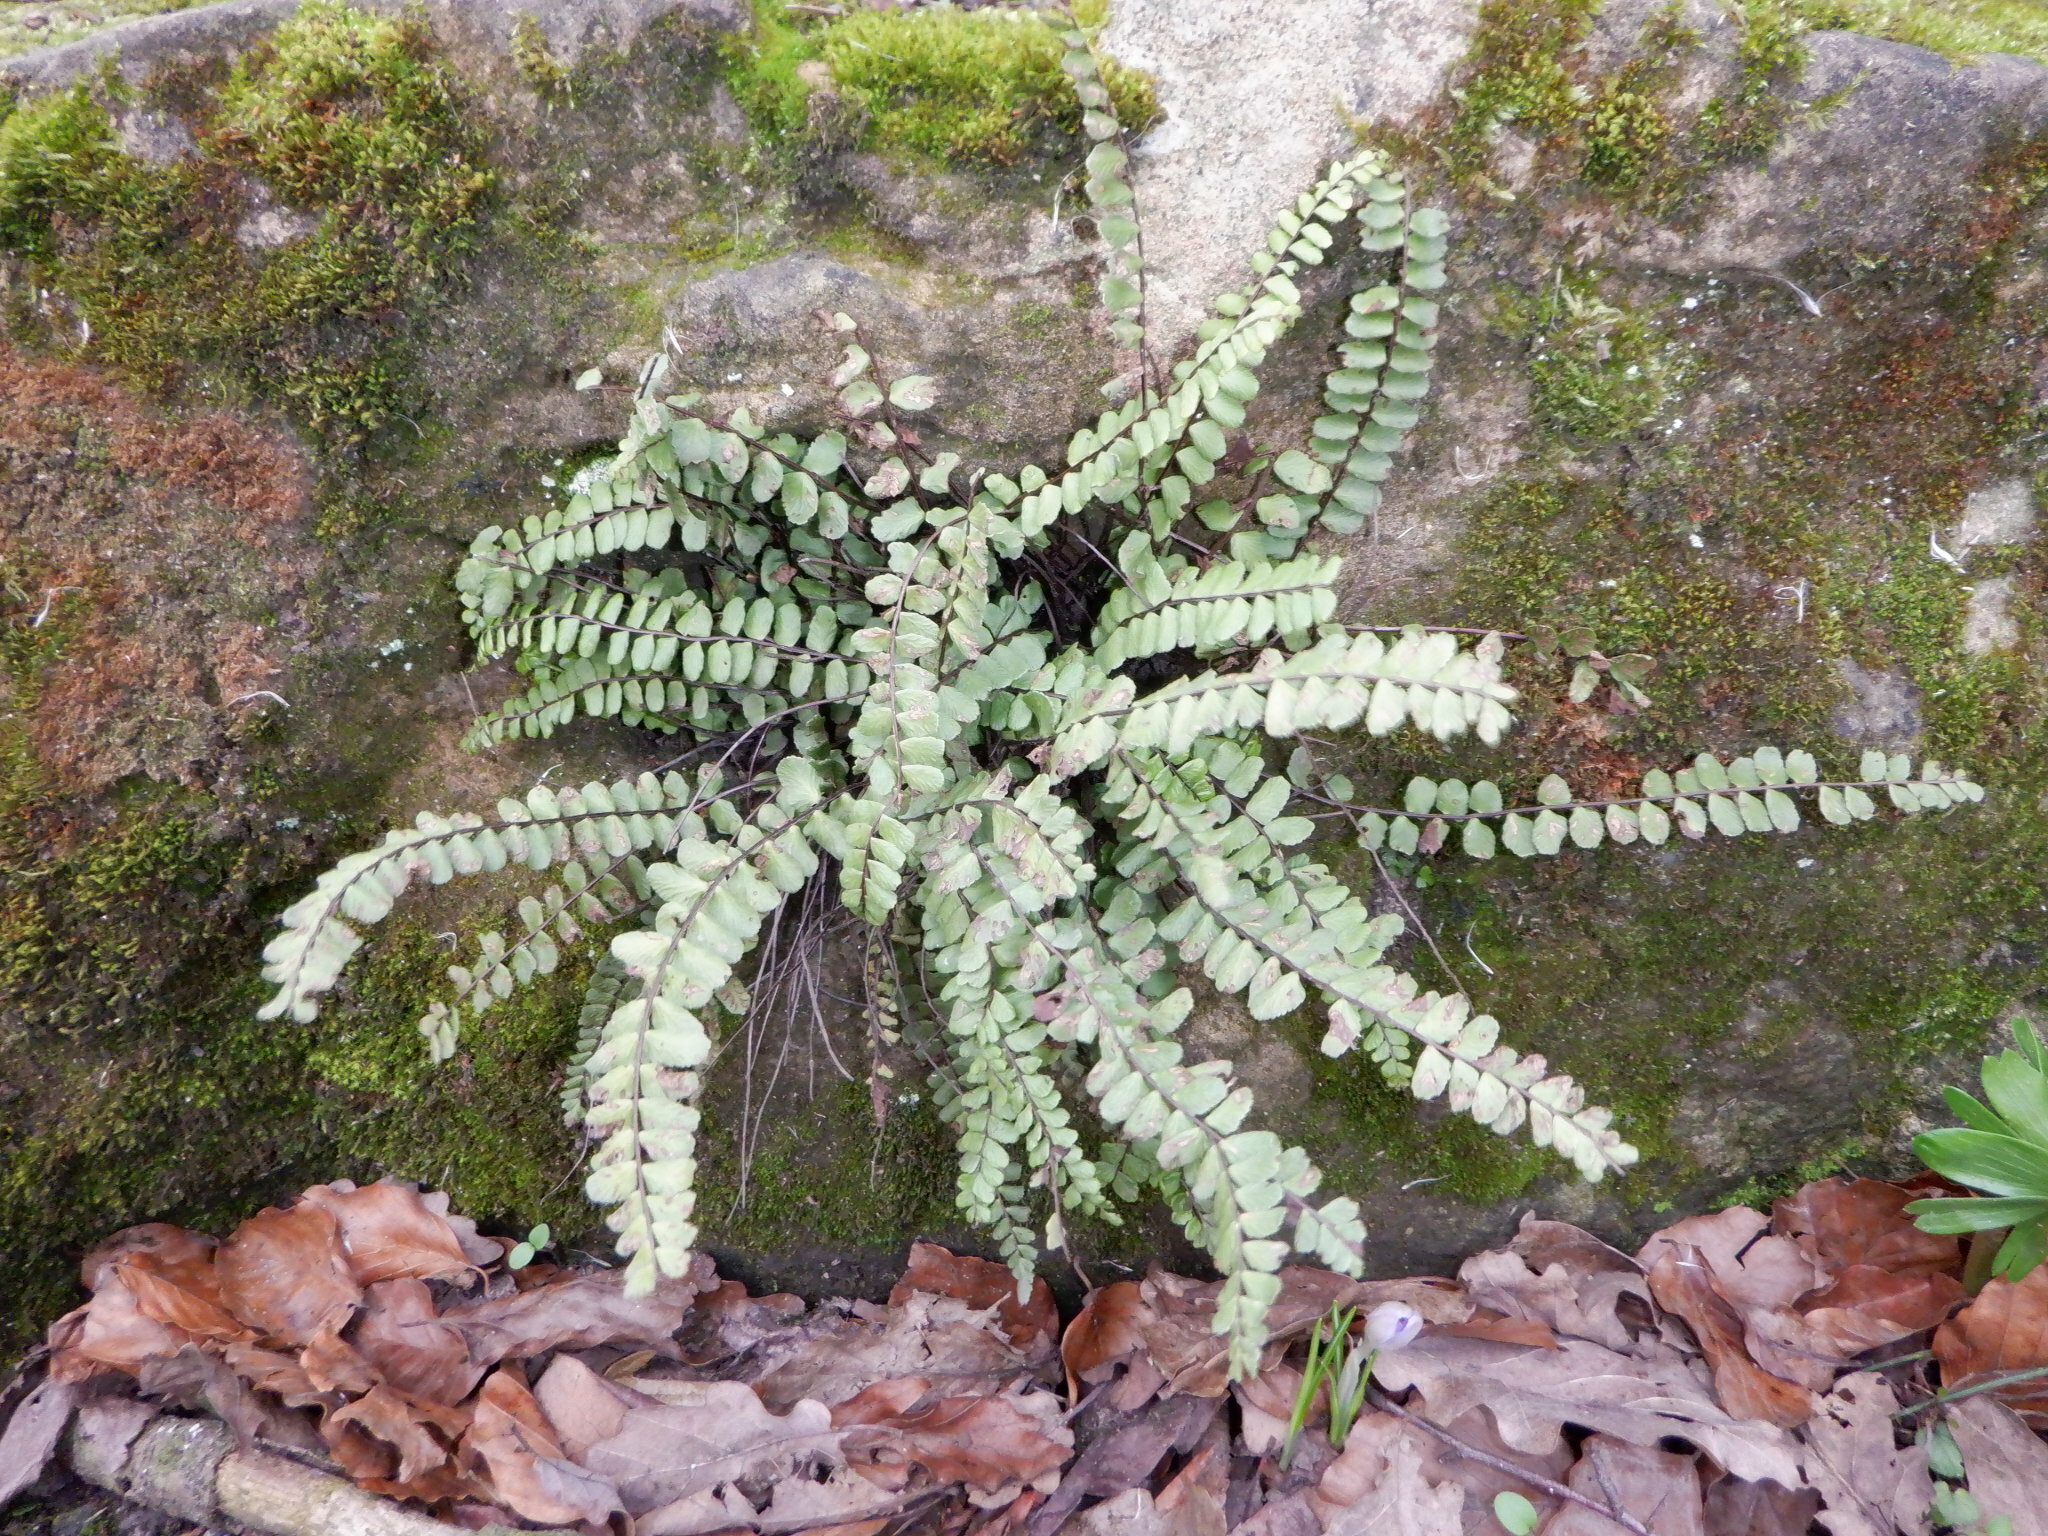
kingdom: Plantae
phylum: Tracheophyta
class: Polypodiopsida
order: Polypodiales
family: Aspleniaceae
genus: Asplenium
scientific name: Asplenium trichomanes
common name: Maidenhair spleenwort
